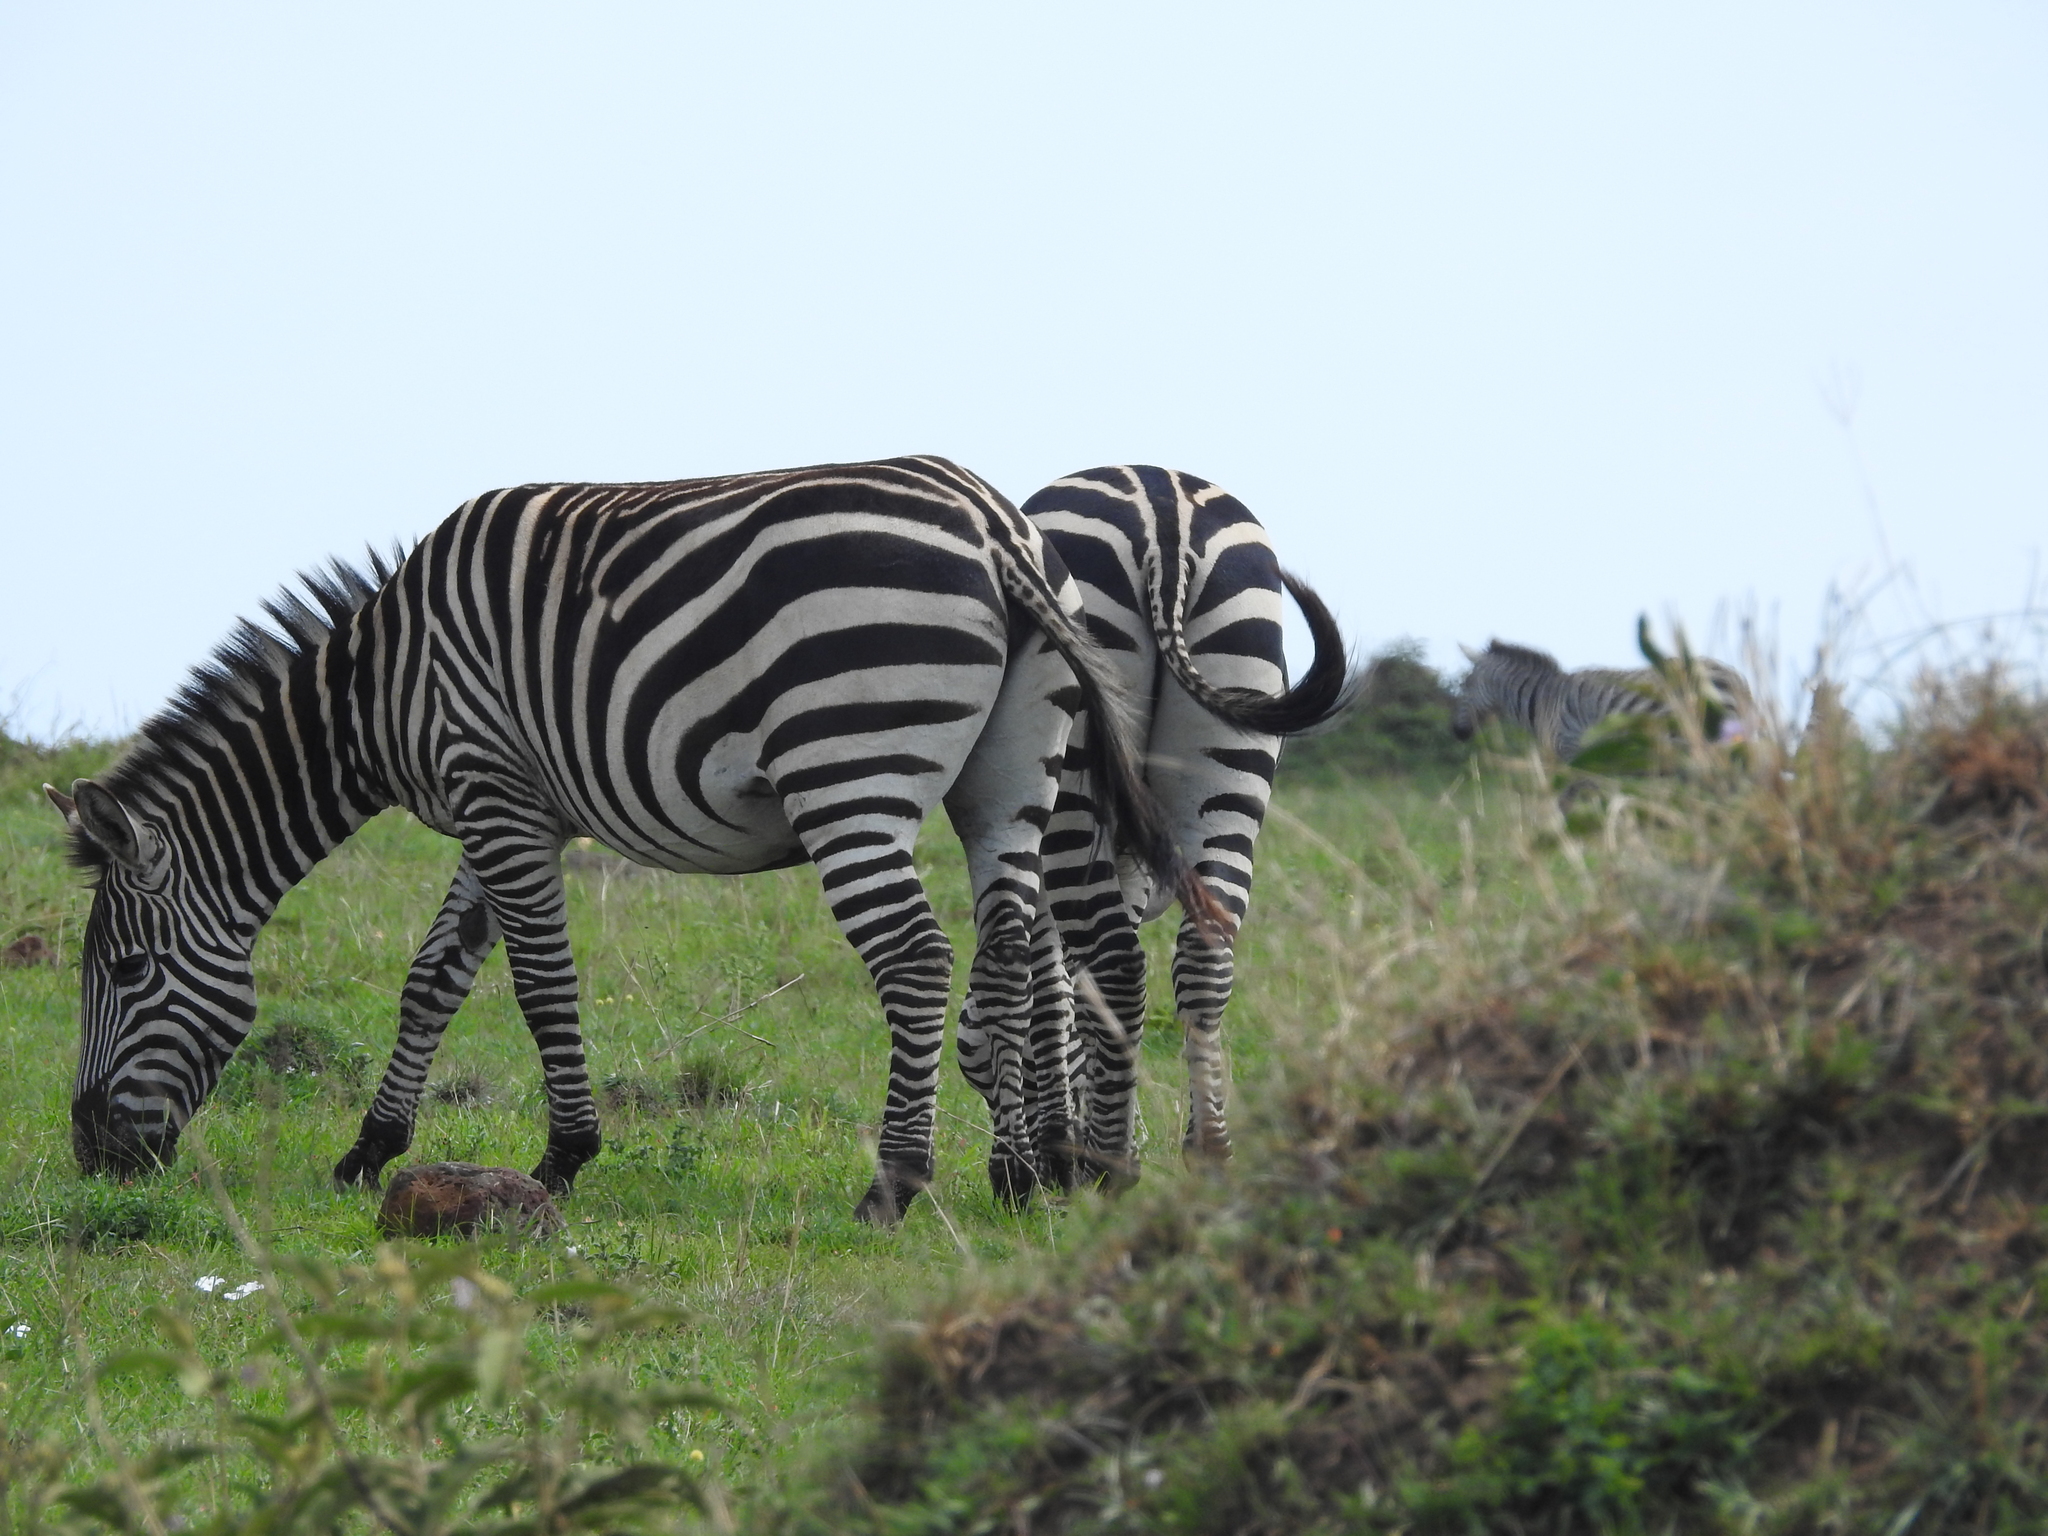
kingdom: Animalia
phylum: Chordata
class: Mammalia
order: Perissodactyla
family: Equidae
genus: Equus
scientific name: Equus quagga
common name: Plains zebra
